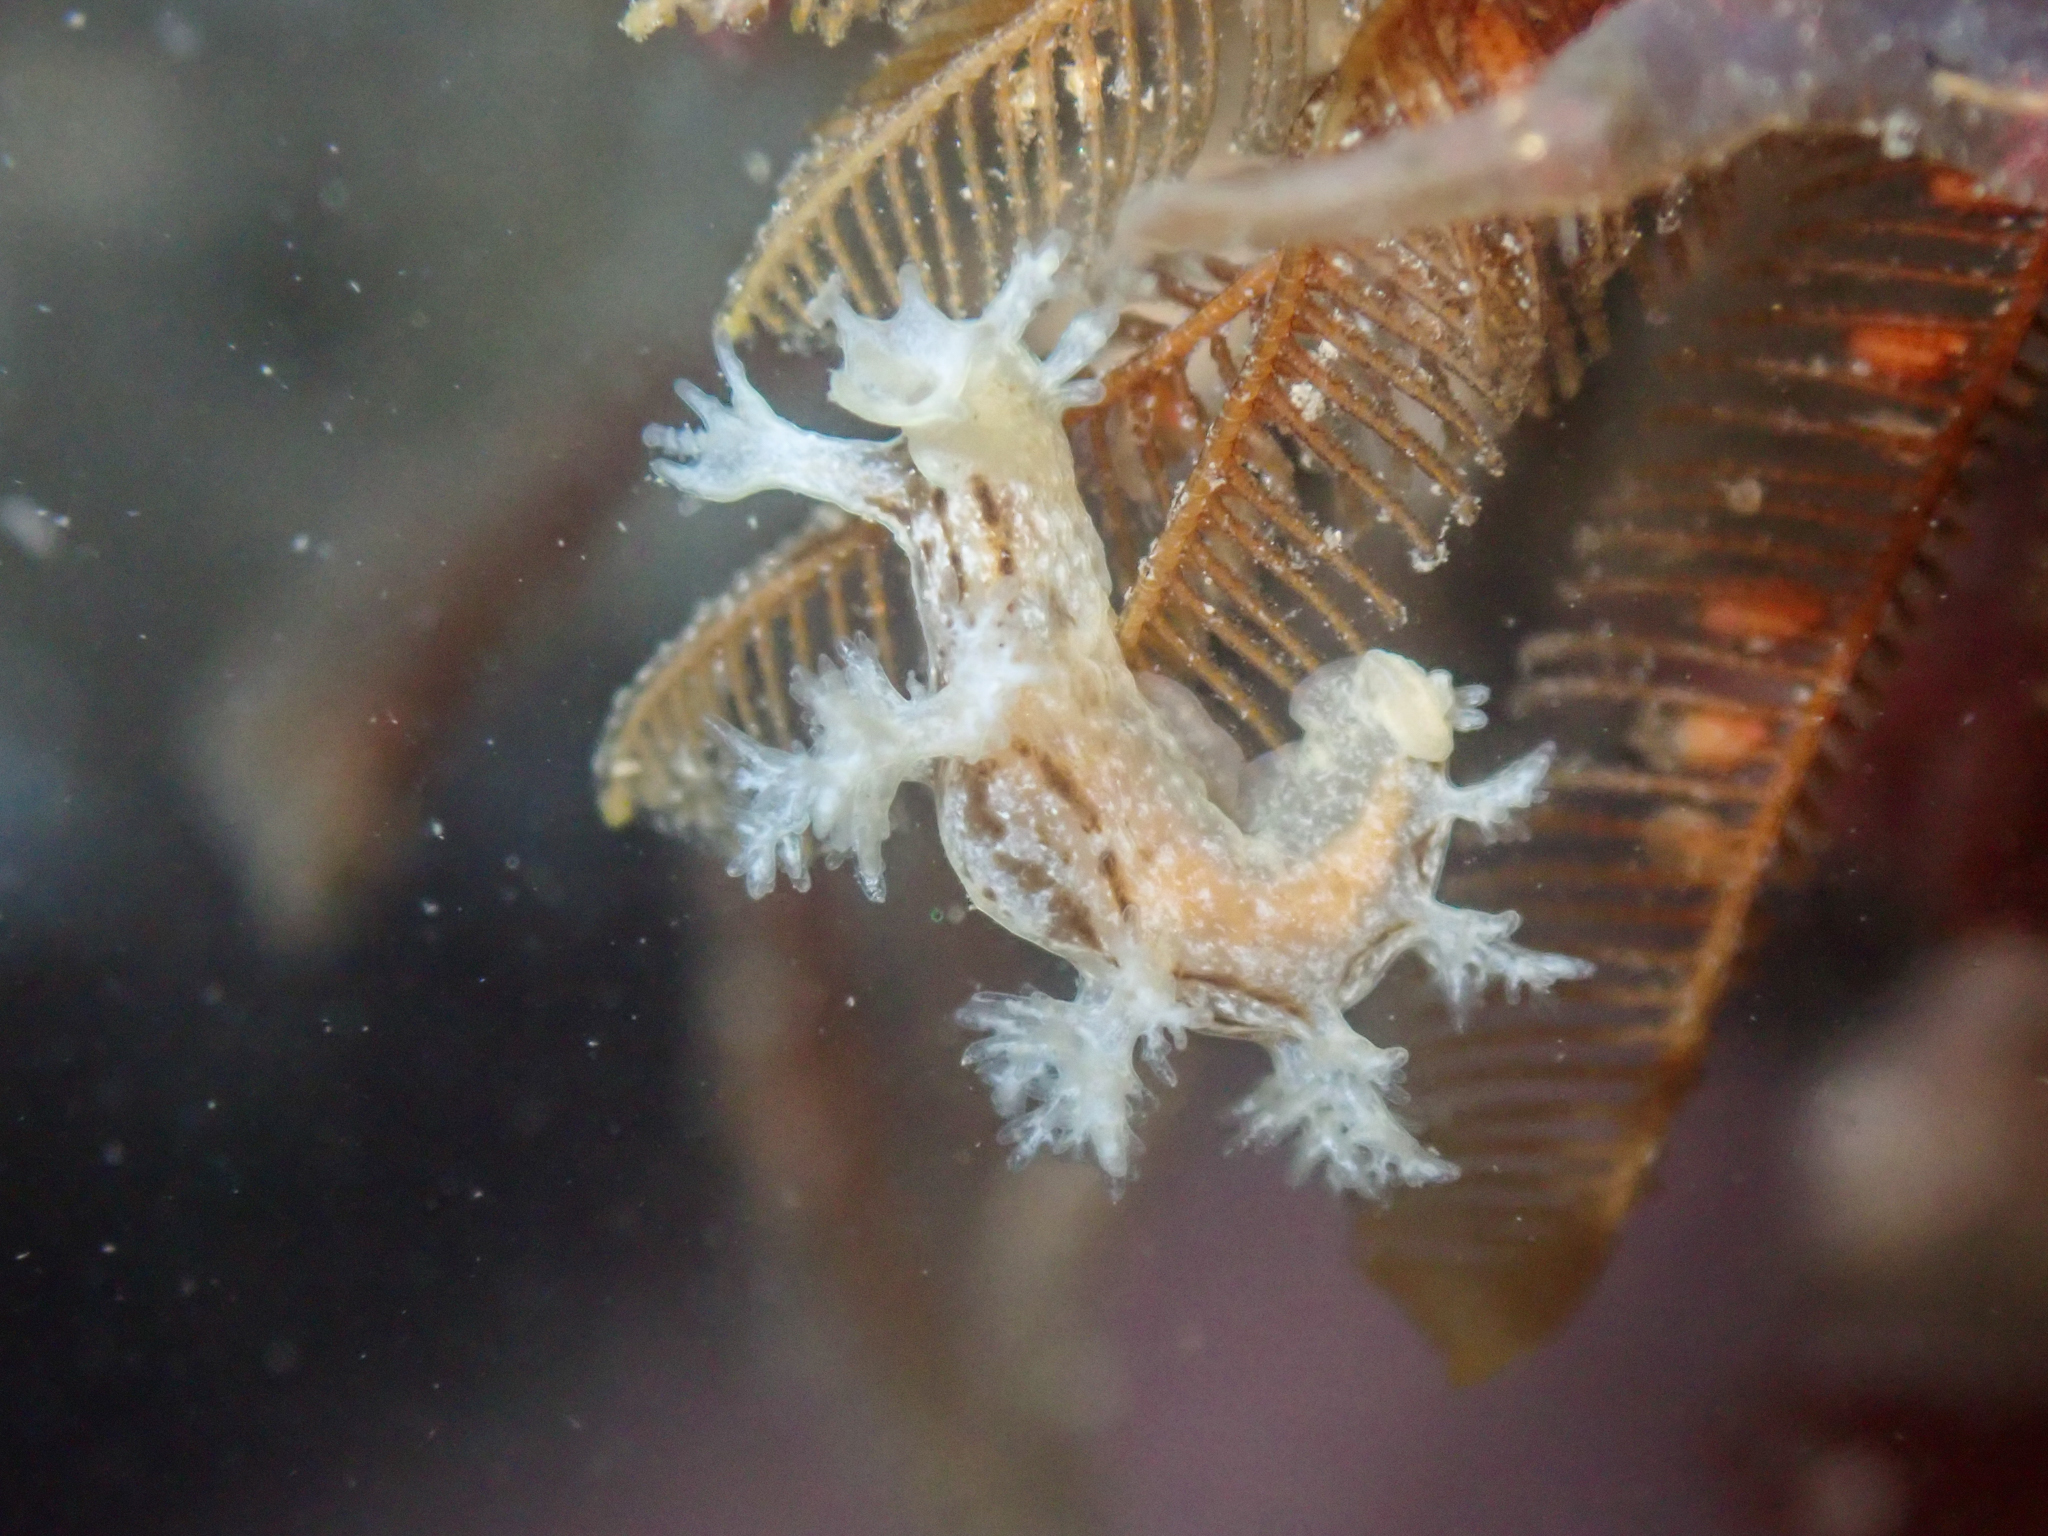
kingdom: Animalia
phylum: Mollusca
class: Gastropoda
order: Nudibranchia
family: Dendronotidae
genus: Dendronotus
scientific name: Dendronotus subramosus
